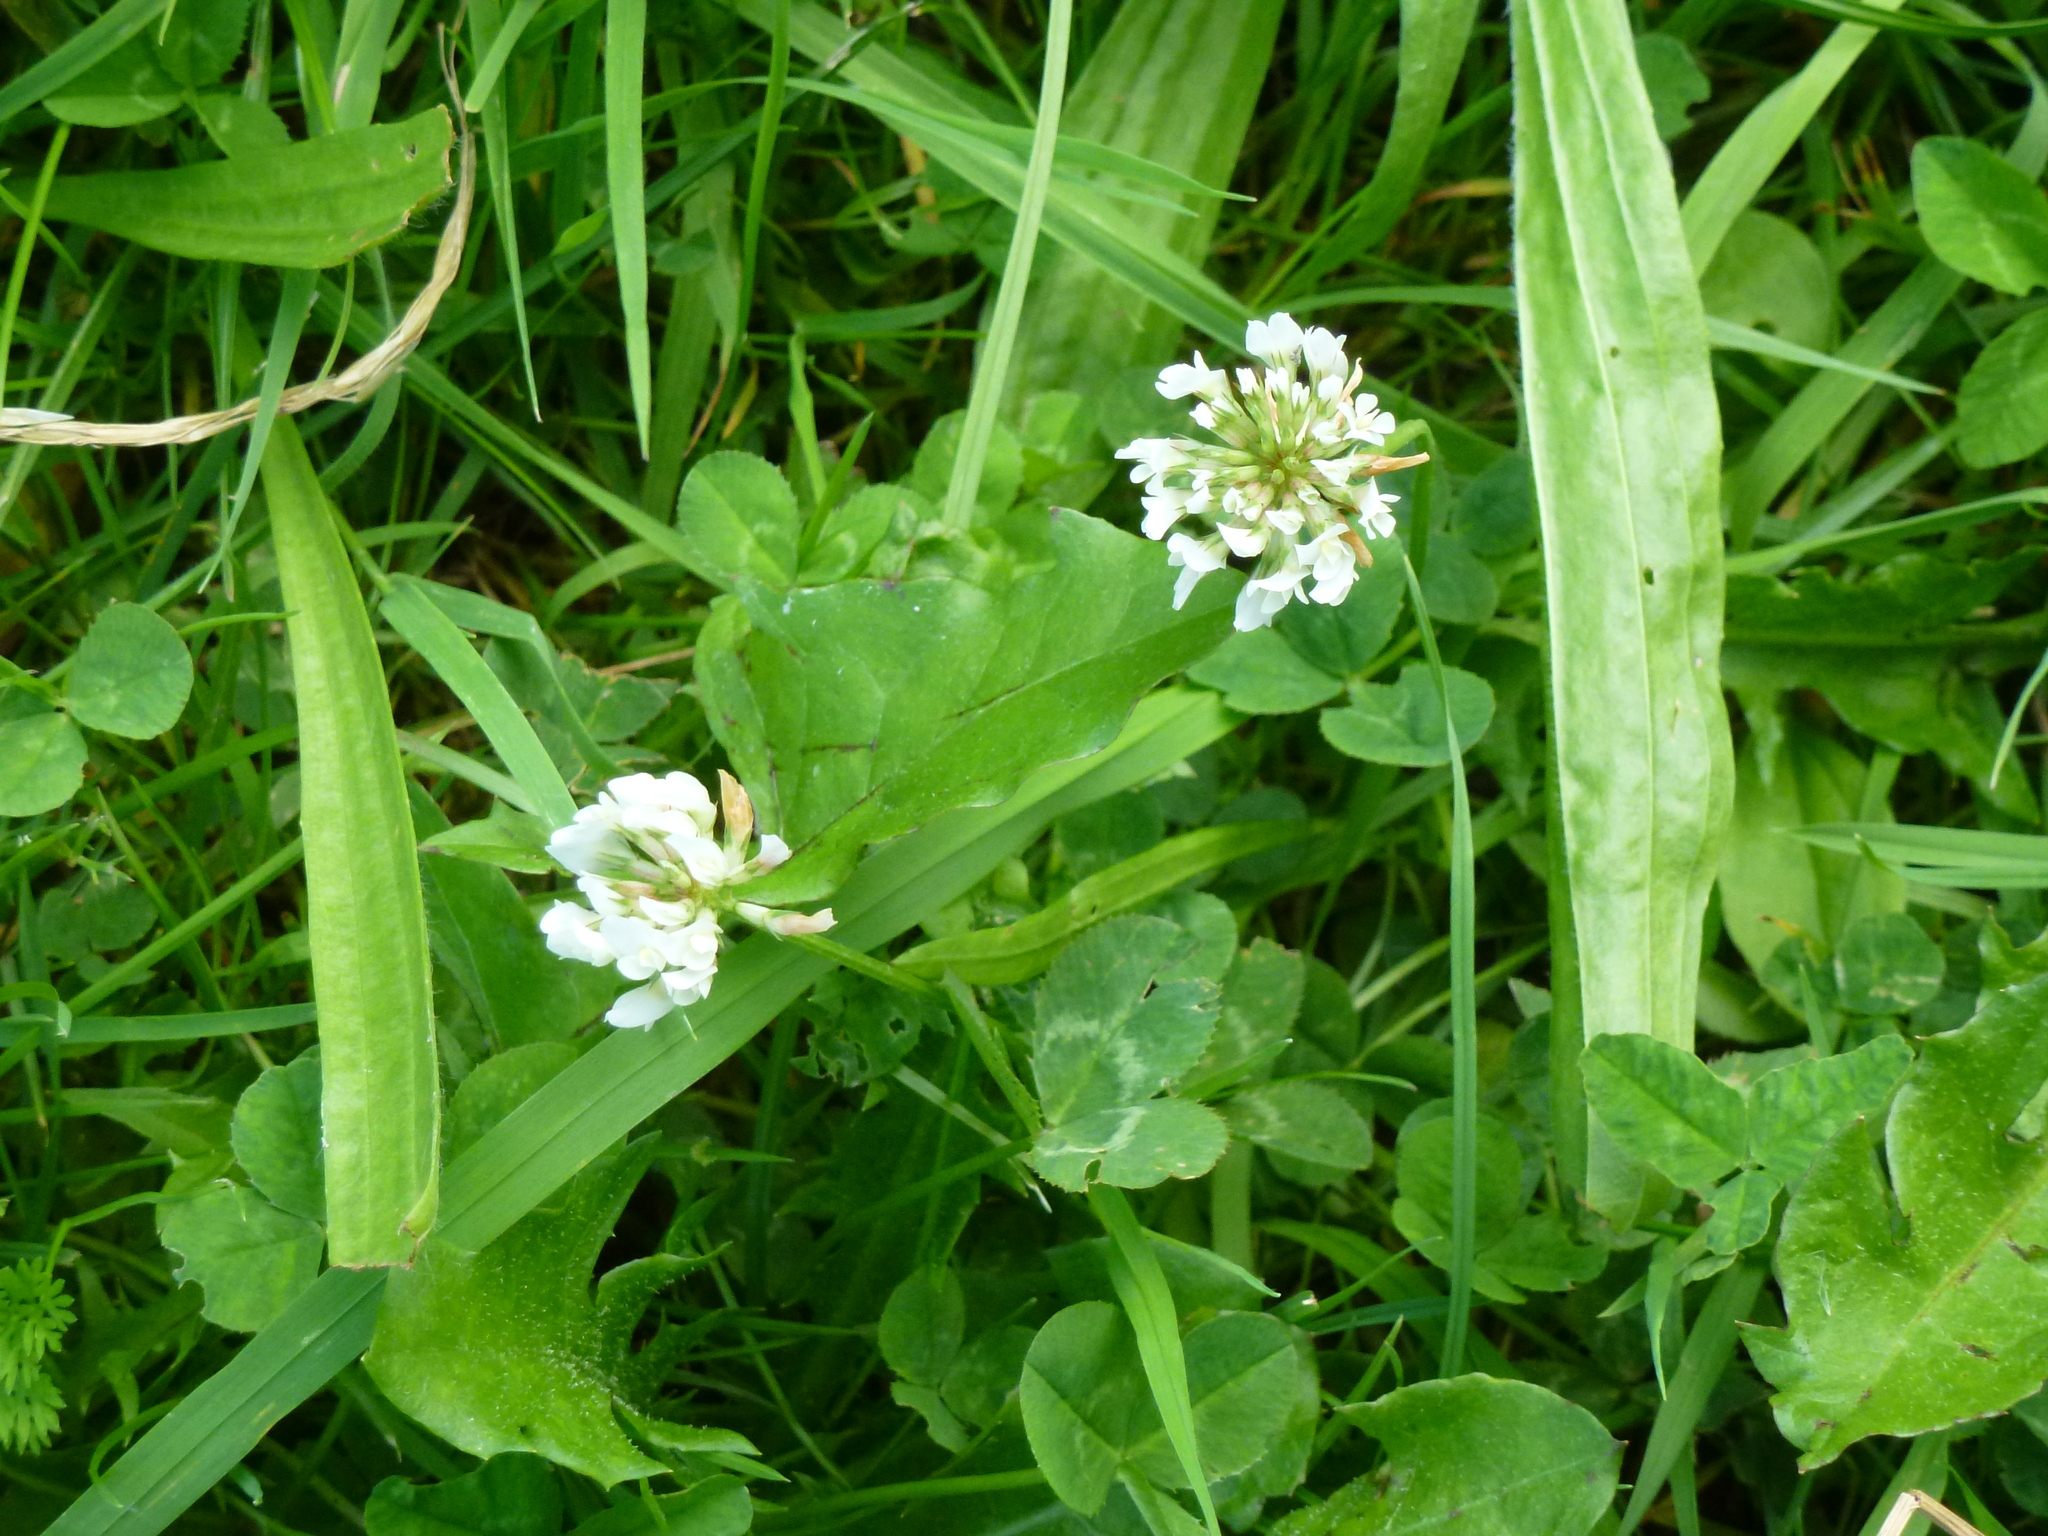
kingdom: Plantae
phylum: Tracheophyta
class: Magnoliopsida
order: Fabales
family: Fabaceae
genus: Trifolium
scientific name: Trifolium repens
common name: White clover
